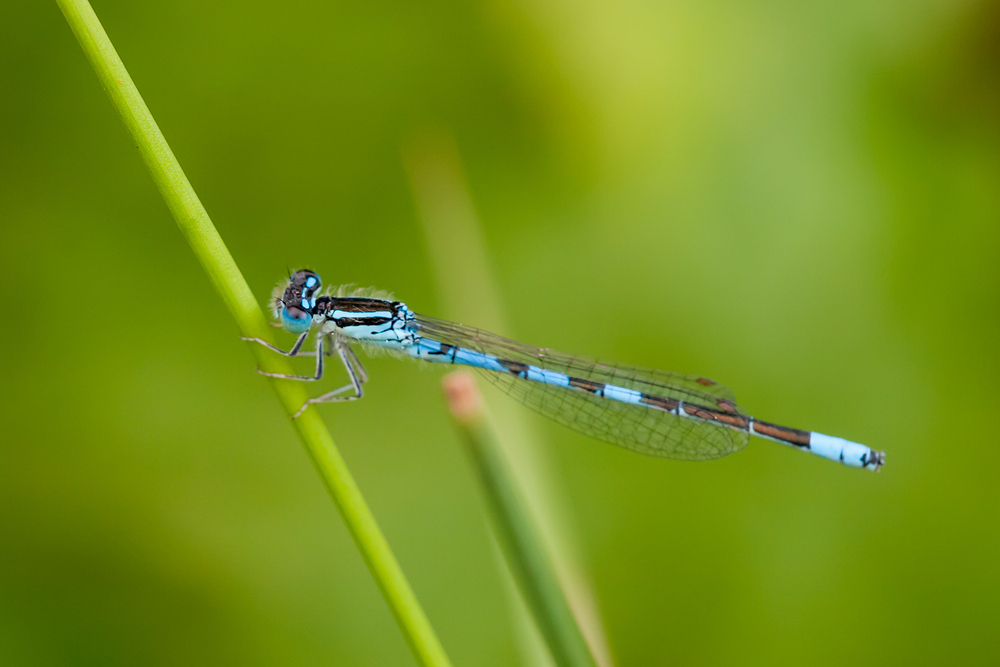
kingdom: Animalia
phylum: Arthropoda
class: Insecta
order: Odonata
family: Coenagrionidae
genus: Coenagrion
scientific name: Coenagrion scitulum
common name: Dainty bluet
